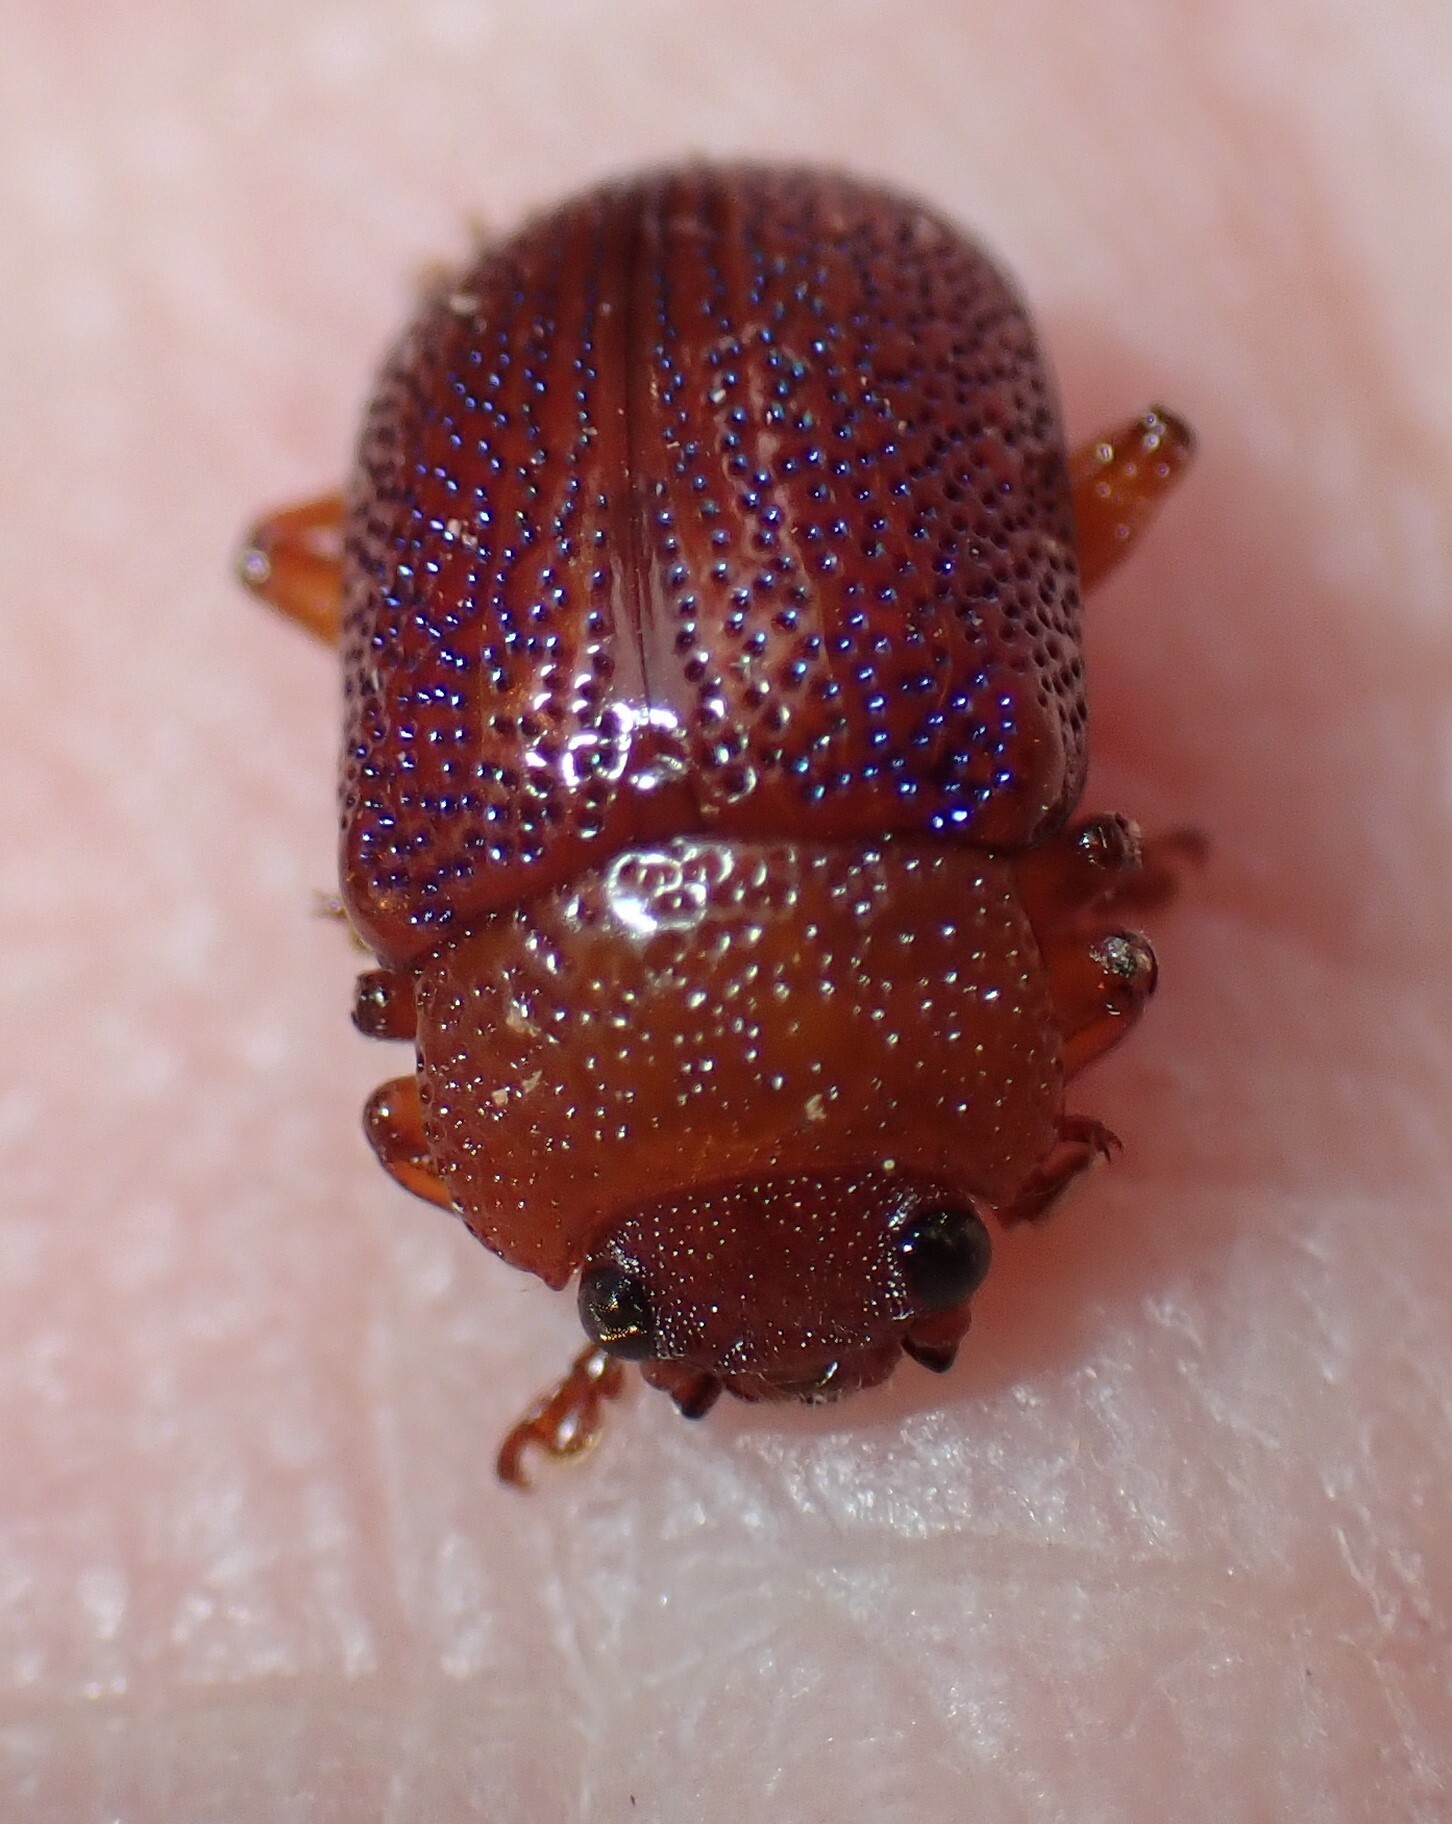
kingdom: Animalia
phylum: Arthropoda
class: Insecta
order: Coleoptera
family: Chrysomelidae
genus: Calomela
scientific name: Calomela
